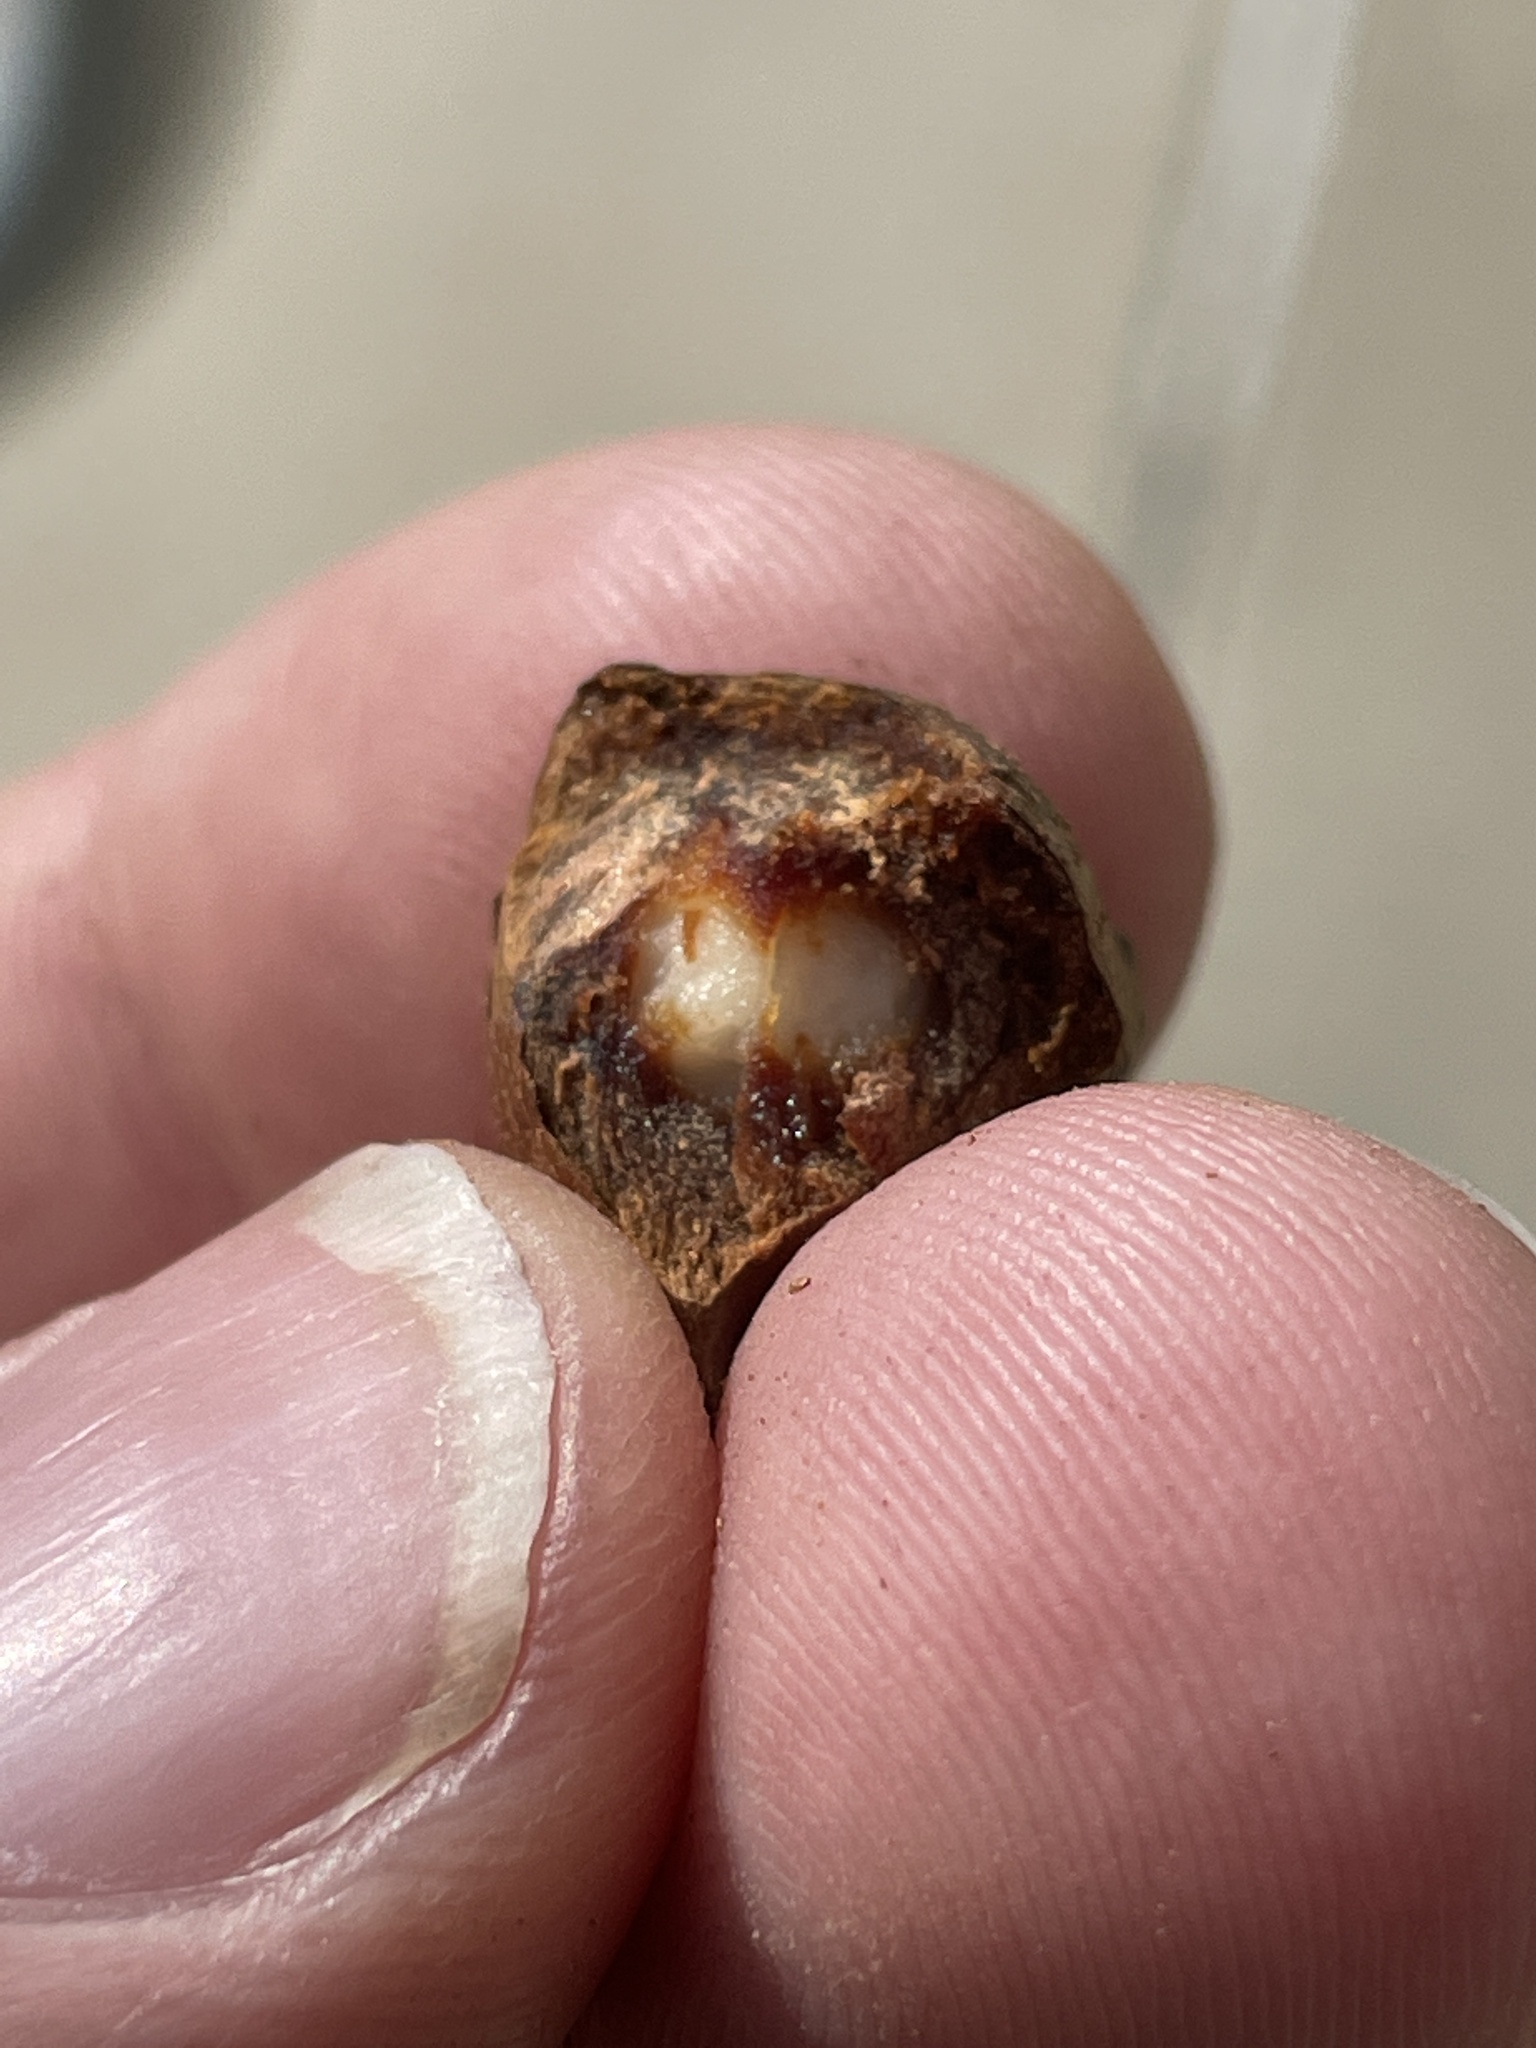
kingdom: Animalia
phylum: Arthropoda
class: Insecta
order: Hymenoptera
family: Cynipidae
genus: Andricus
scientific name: Andricus
